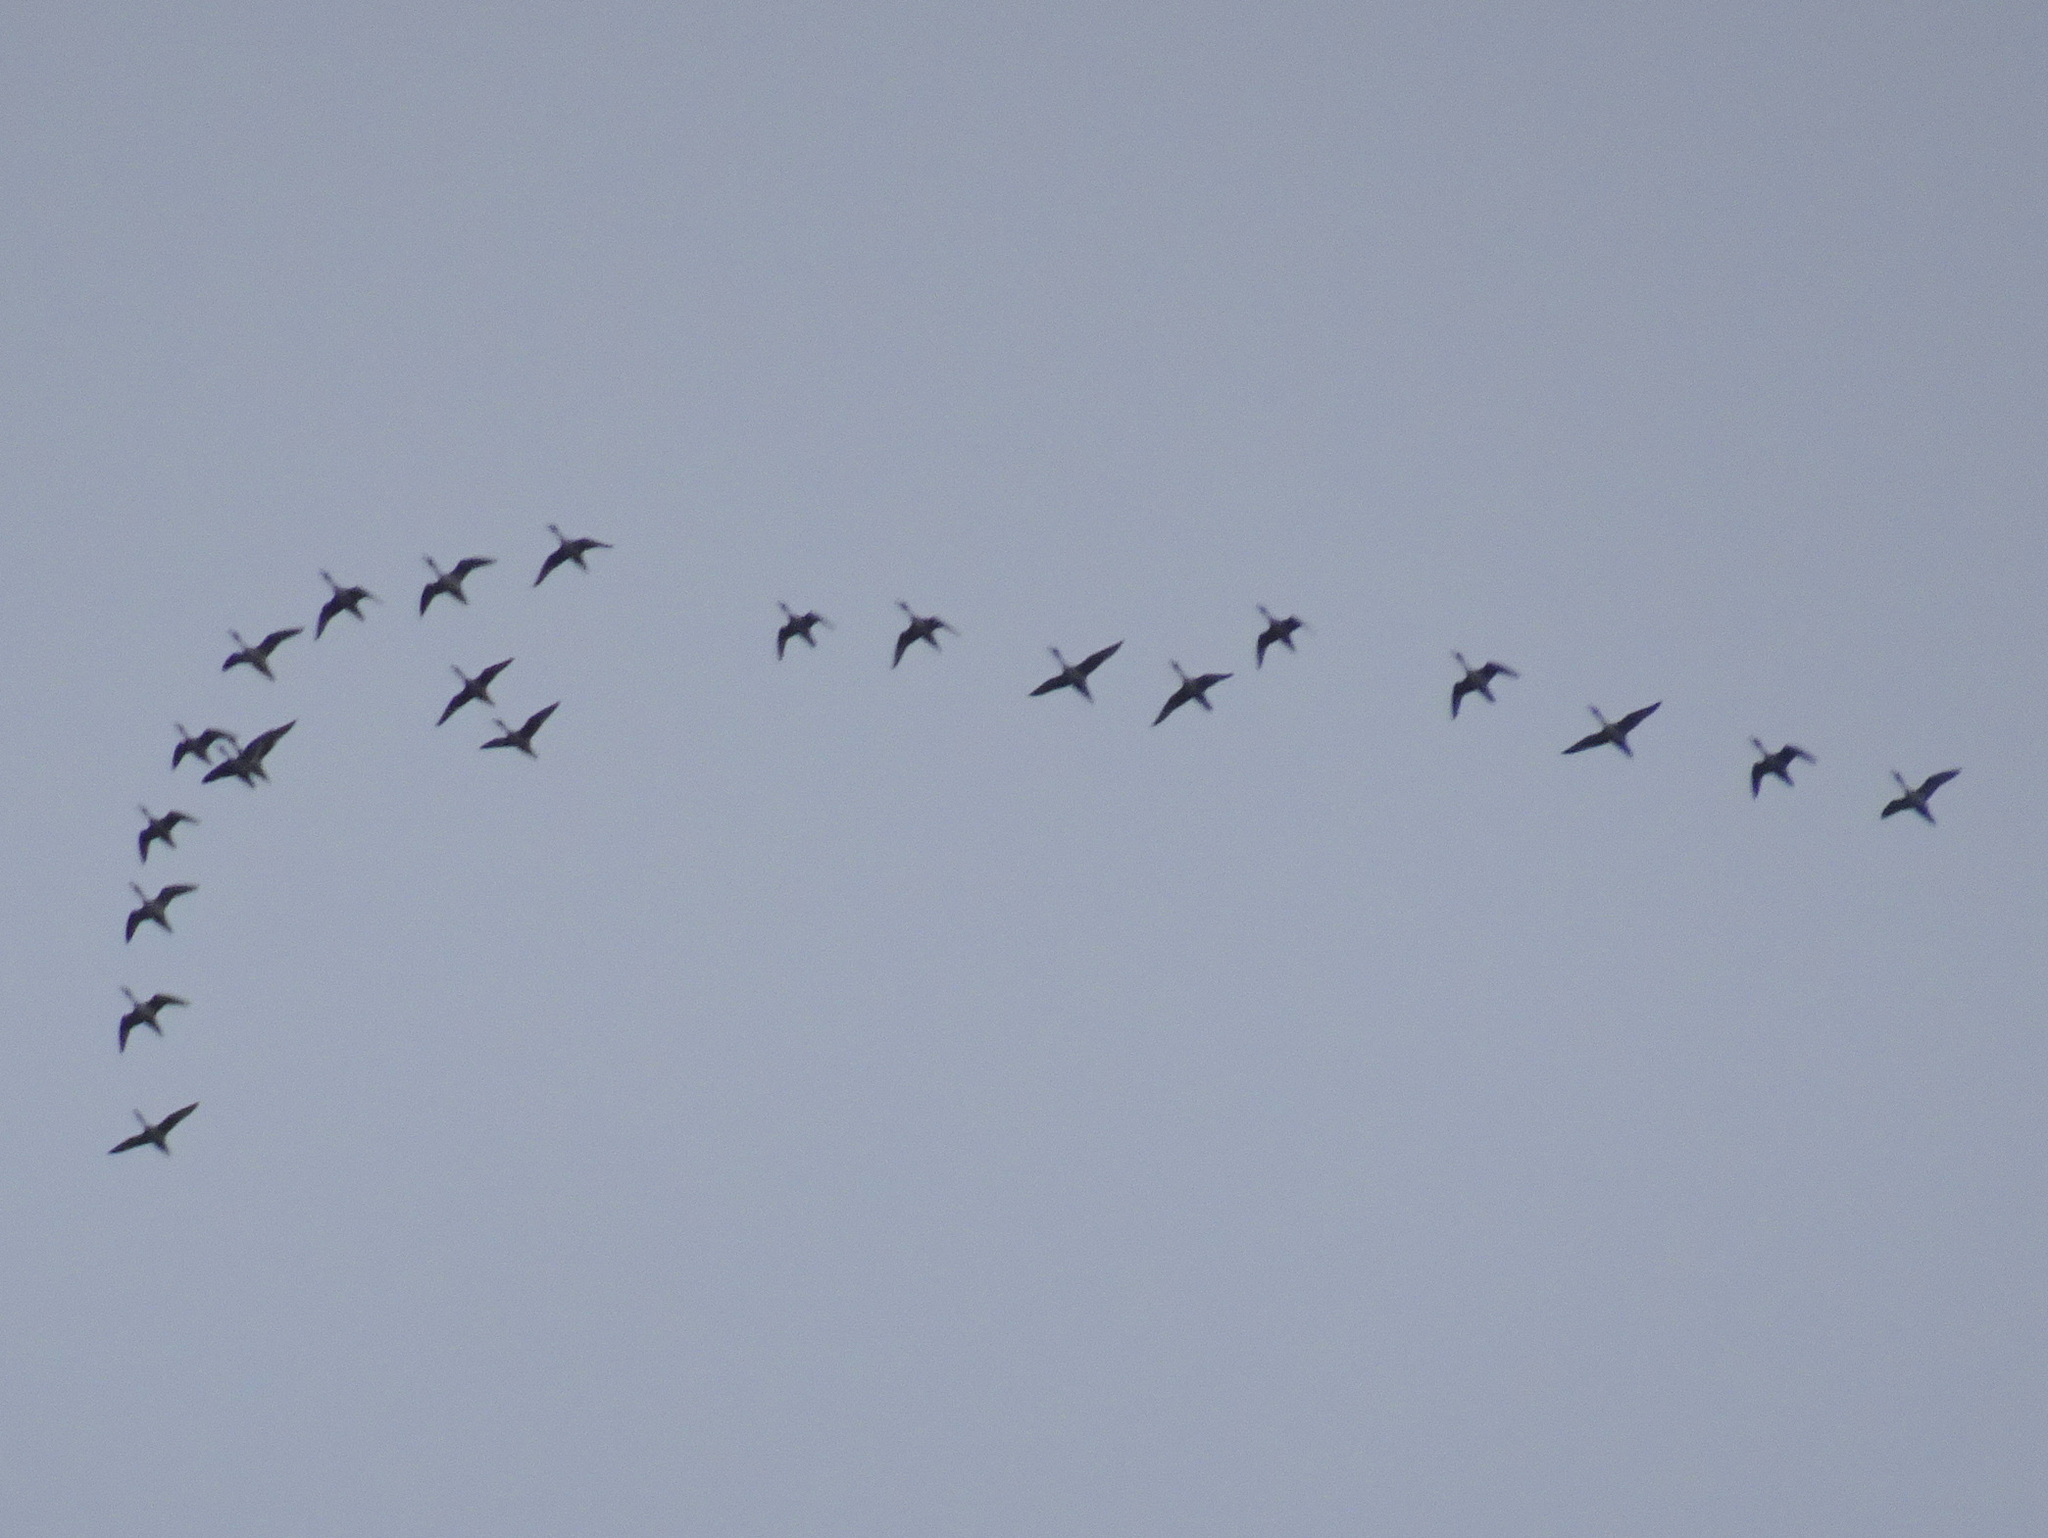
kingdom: Animalia
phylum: Chordata
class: Aves
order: Anseriformes
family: Anatidae
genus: Anas
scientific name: Anas acuta
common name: Northern pintail
